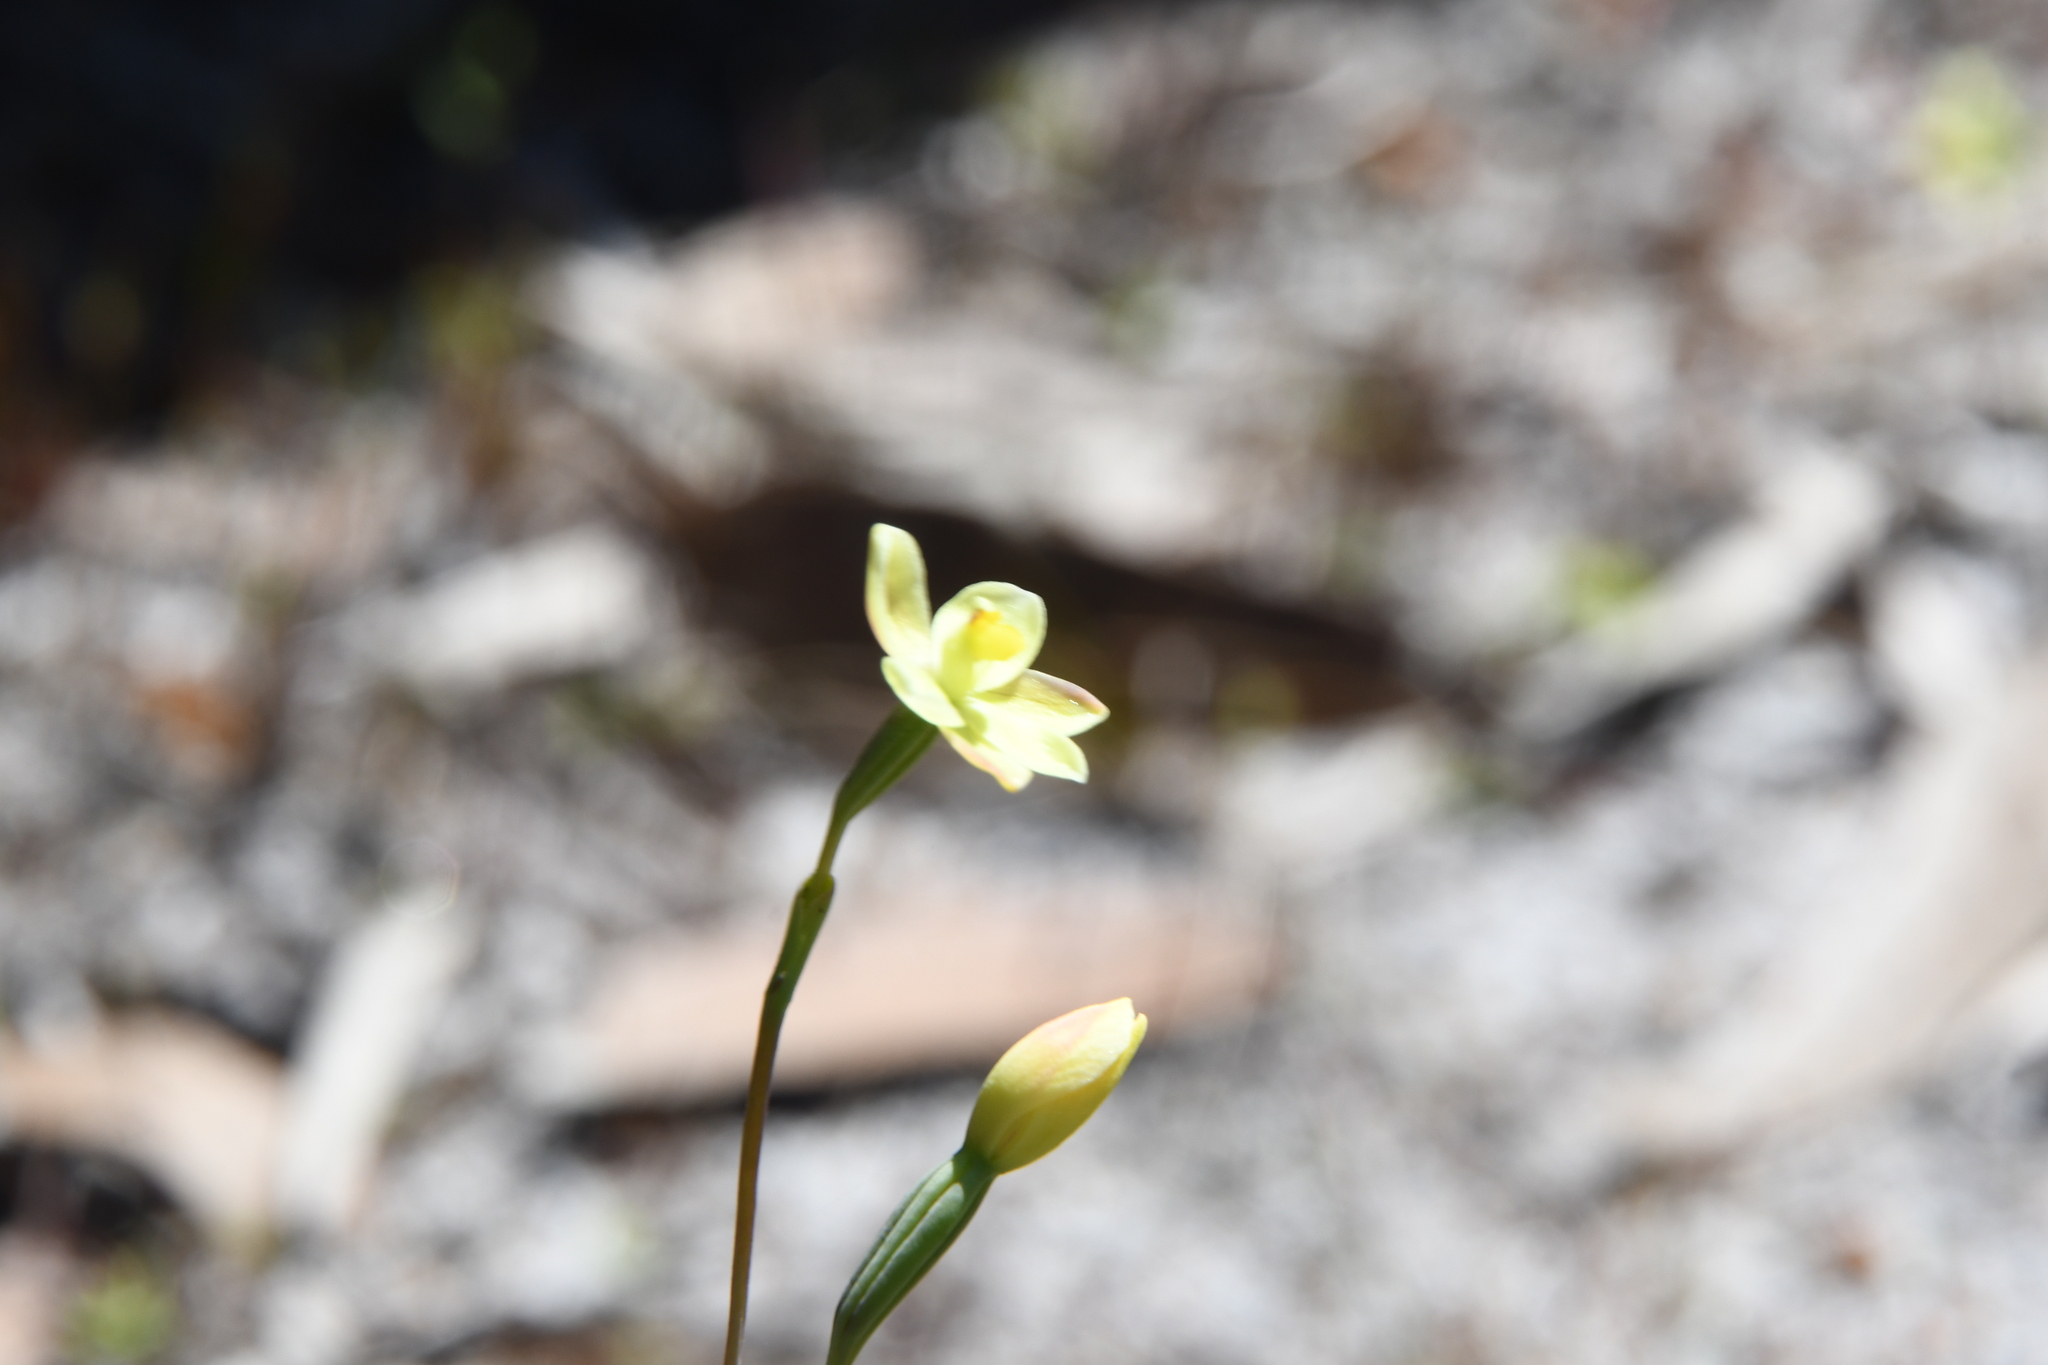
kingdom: Plantae
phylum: Tracheophyta
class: Liliopsida
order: Asparagales
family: Orchidaceae
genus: Thelymitra
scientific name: Thelymitra flexuosa
